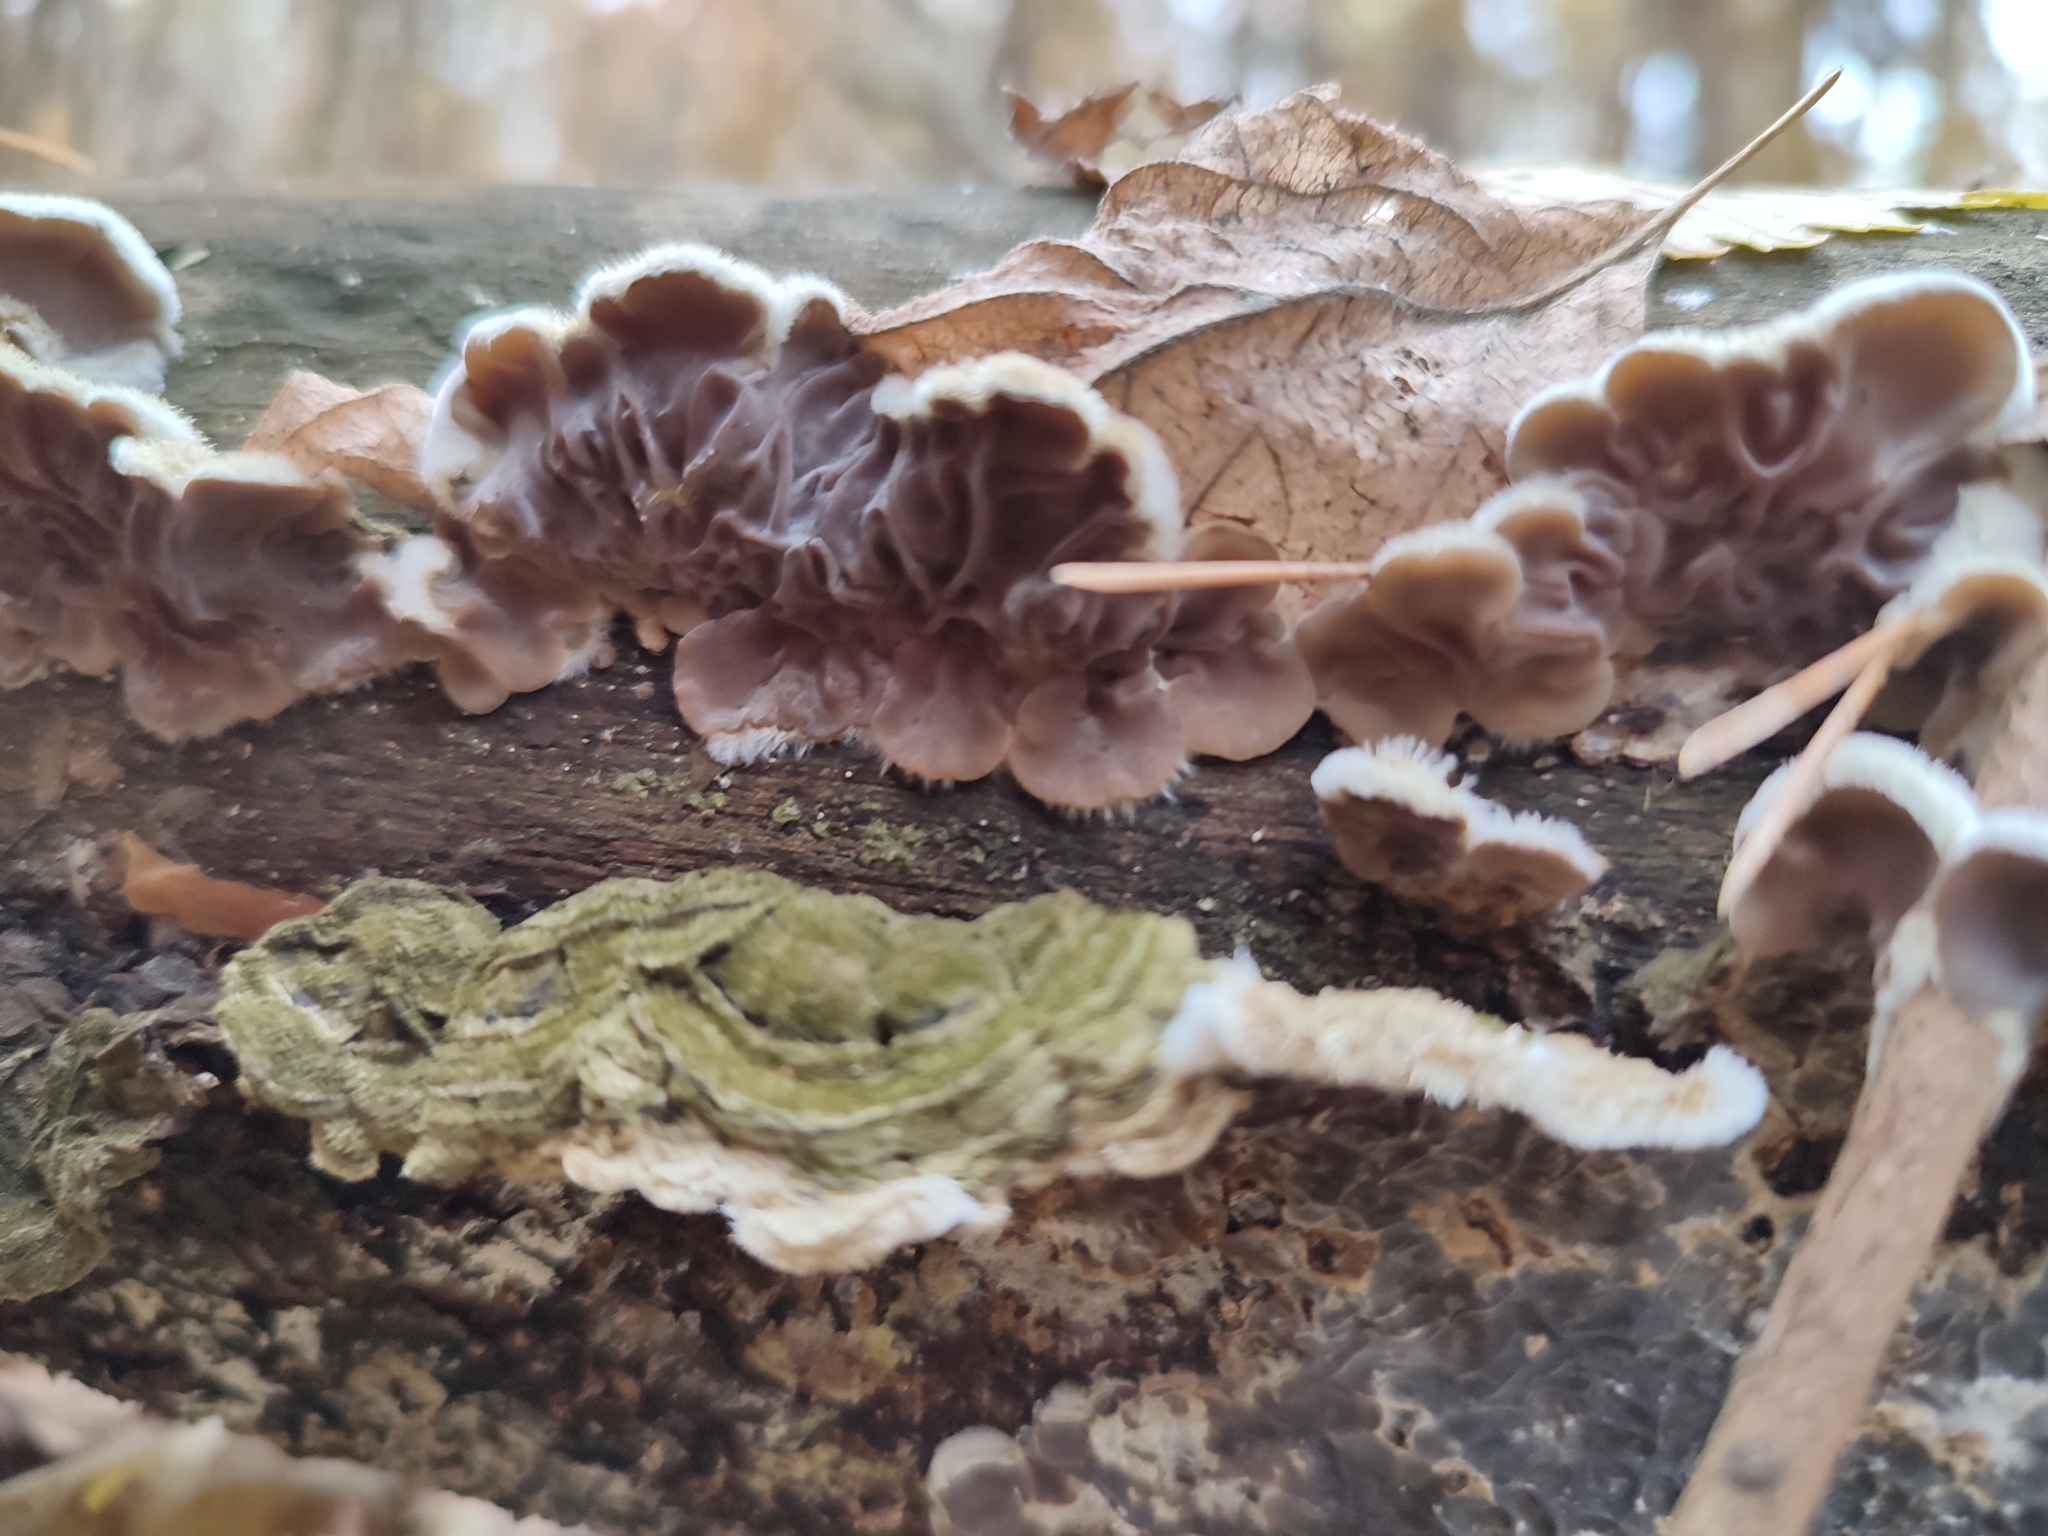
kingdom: Fungi
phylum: Basidiomycota
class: Agaricomycetes
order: Auriculariales
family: Auriculariaceae
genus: Auricularia
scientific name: Auricularia mesenterica
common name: Tripe fungus
